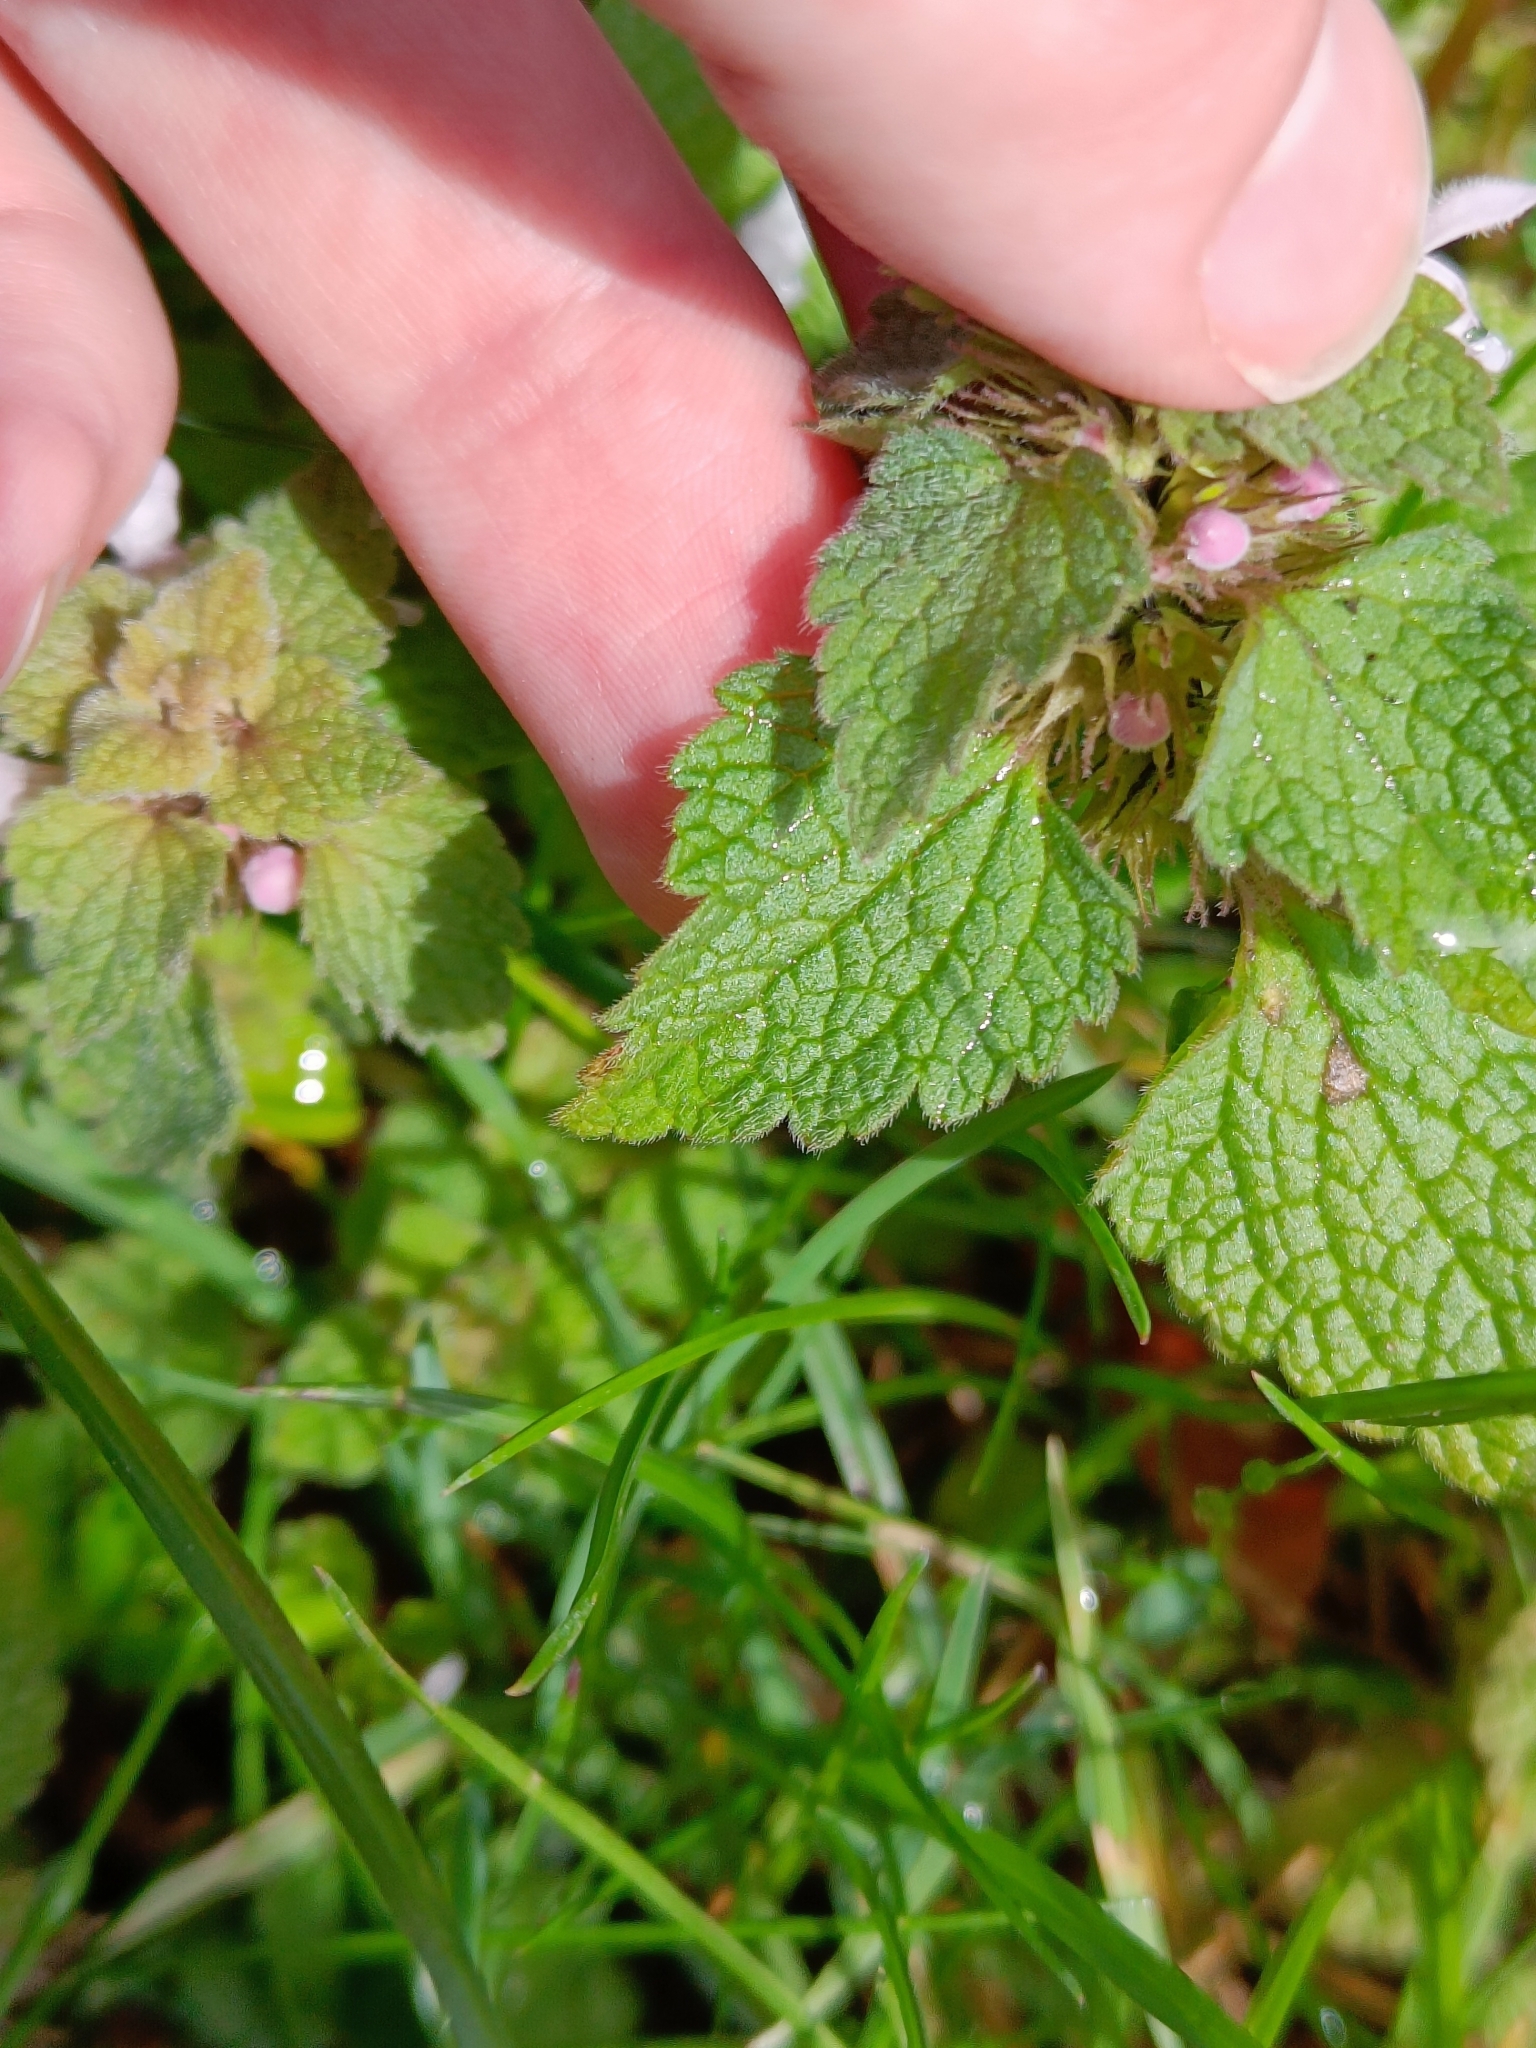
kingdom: Plantae
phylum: Tracheophyta
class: Magnoliopsida
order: Lamiales
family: Lamiaceae
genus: Lamium
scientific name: Lamium purpureum
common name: Red dead-nettle
